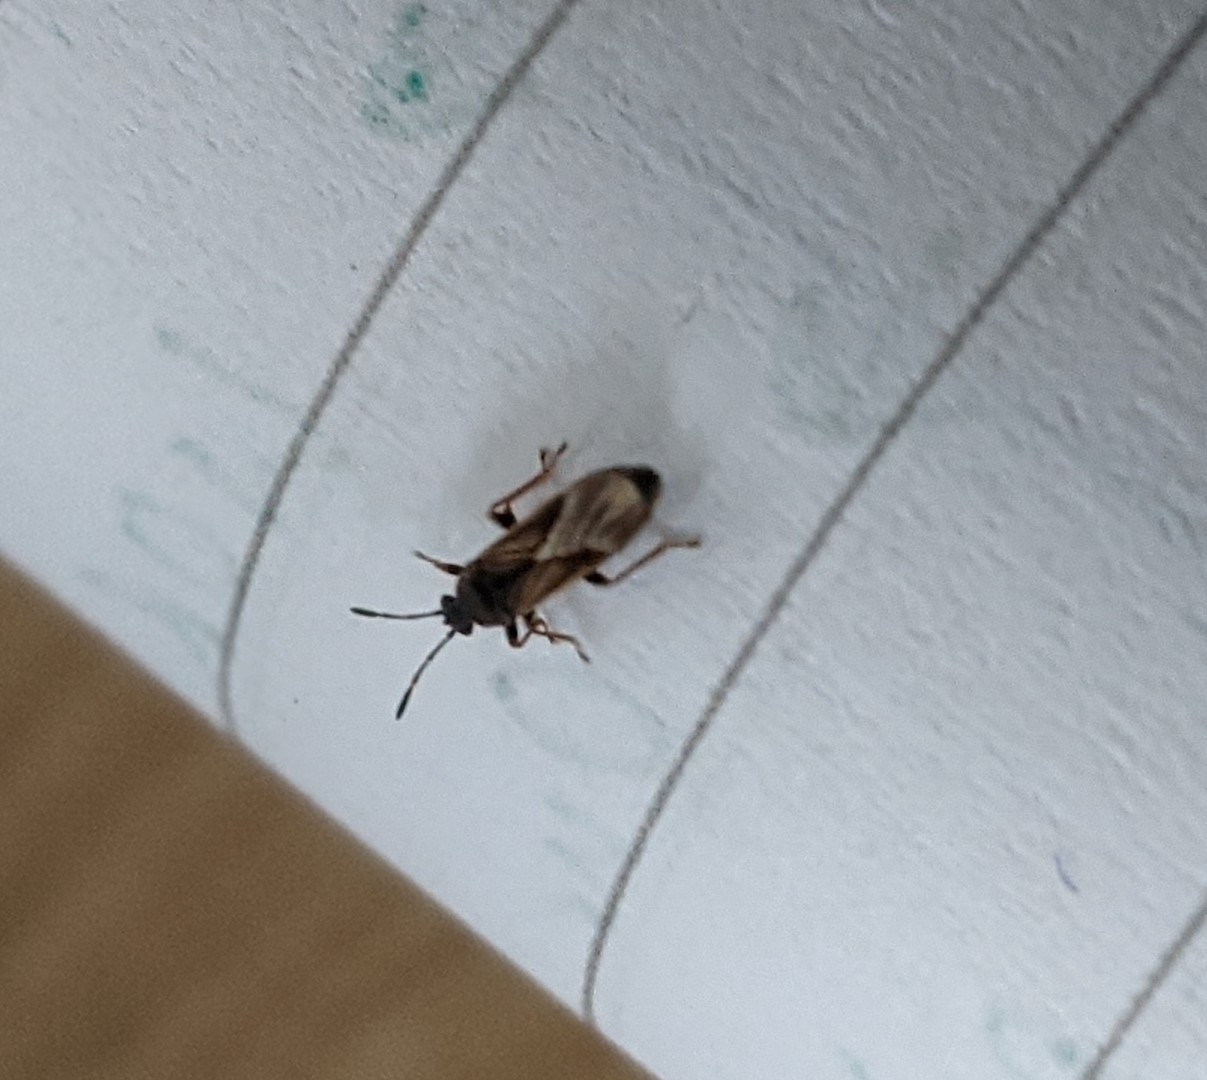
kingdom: Animalia
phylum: Arthropoda
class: Insecta
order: Hemiptera
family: Blissidae
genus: Ischnodemus
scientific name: Ischnodemus sabuleti
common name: European cinchbug
